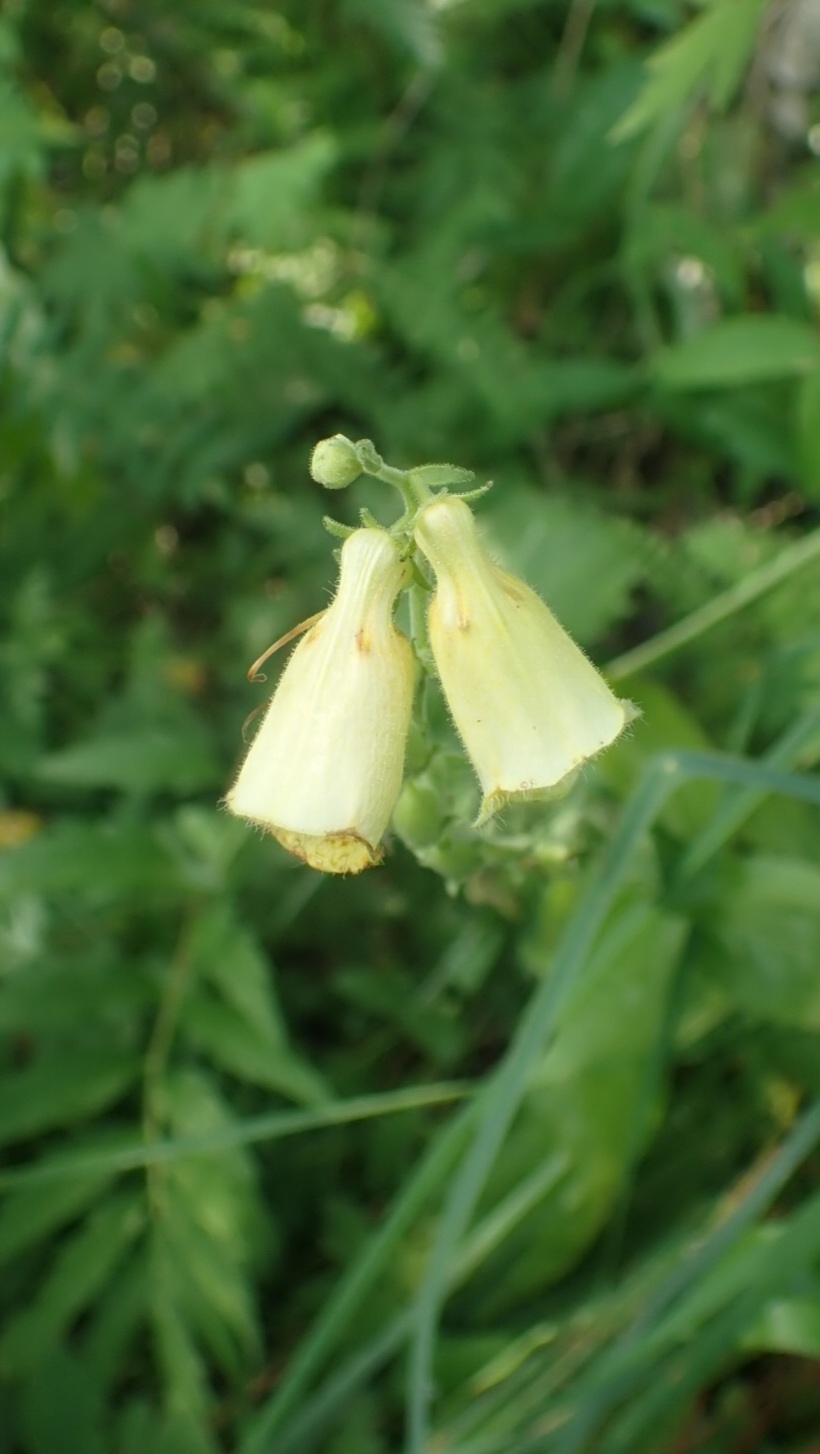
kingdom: Plantae
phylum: Tracheophyta
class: Magnoliopsida
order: Lamiales
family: Plantaginaceae
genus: Digitalis
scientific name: Digitalis grandiflora
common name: Yellow foxglove
